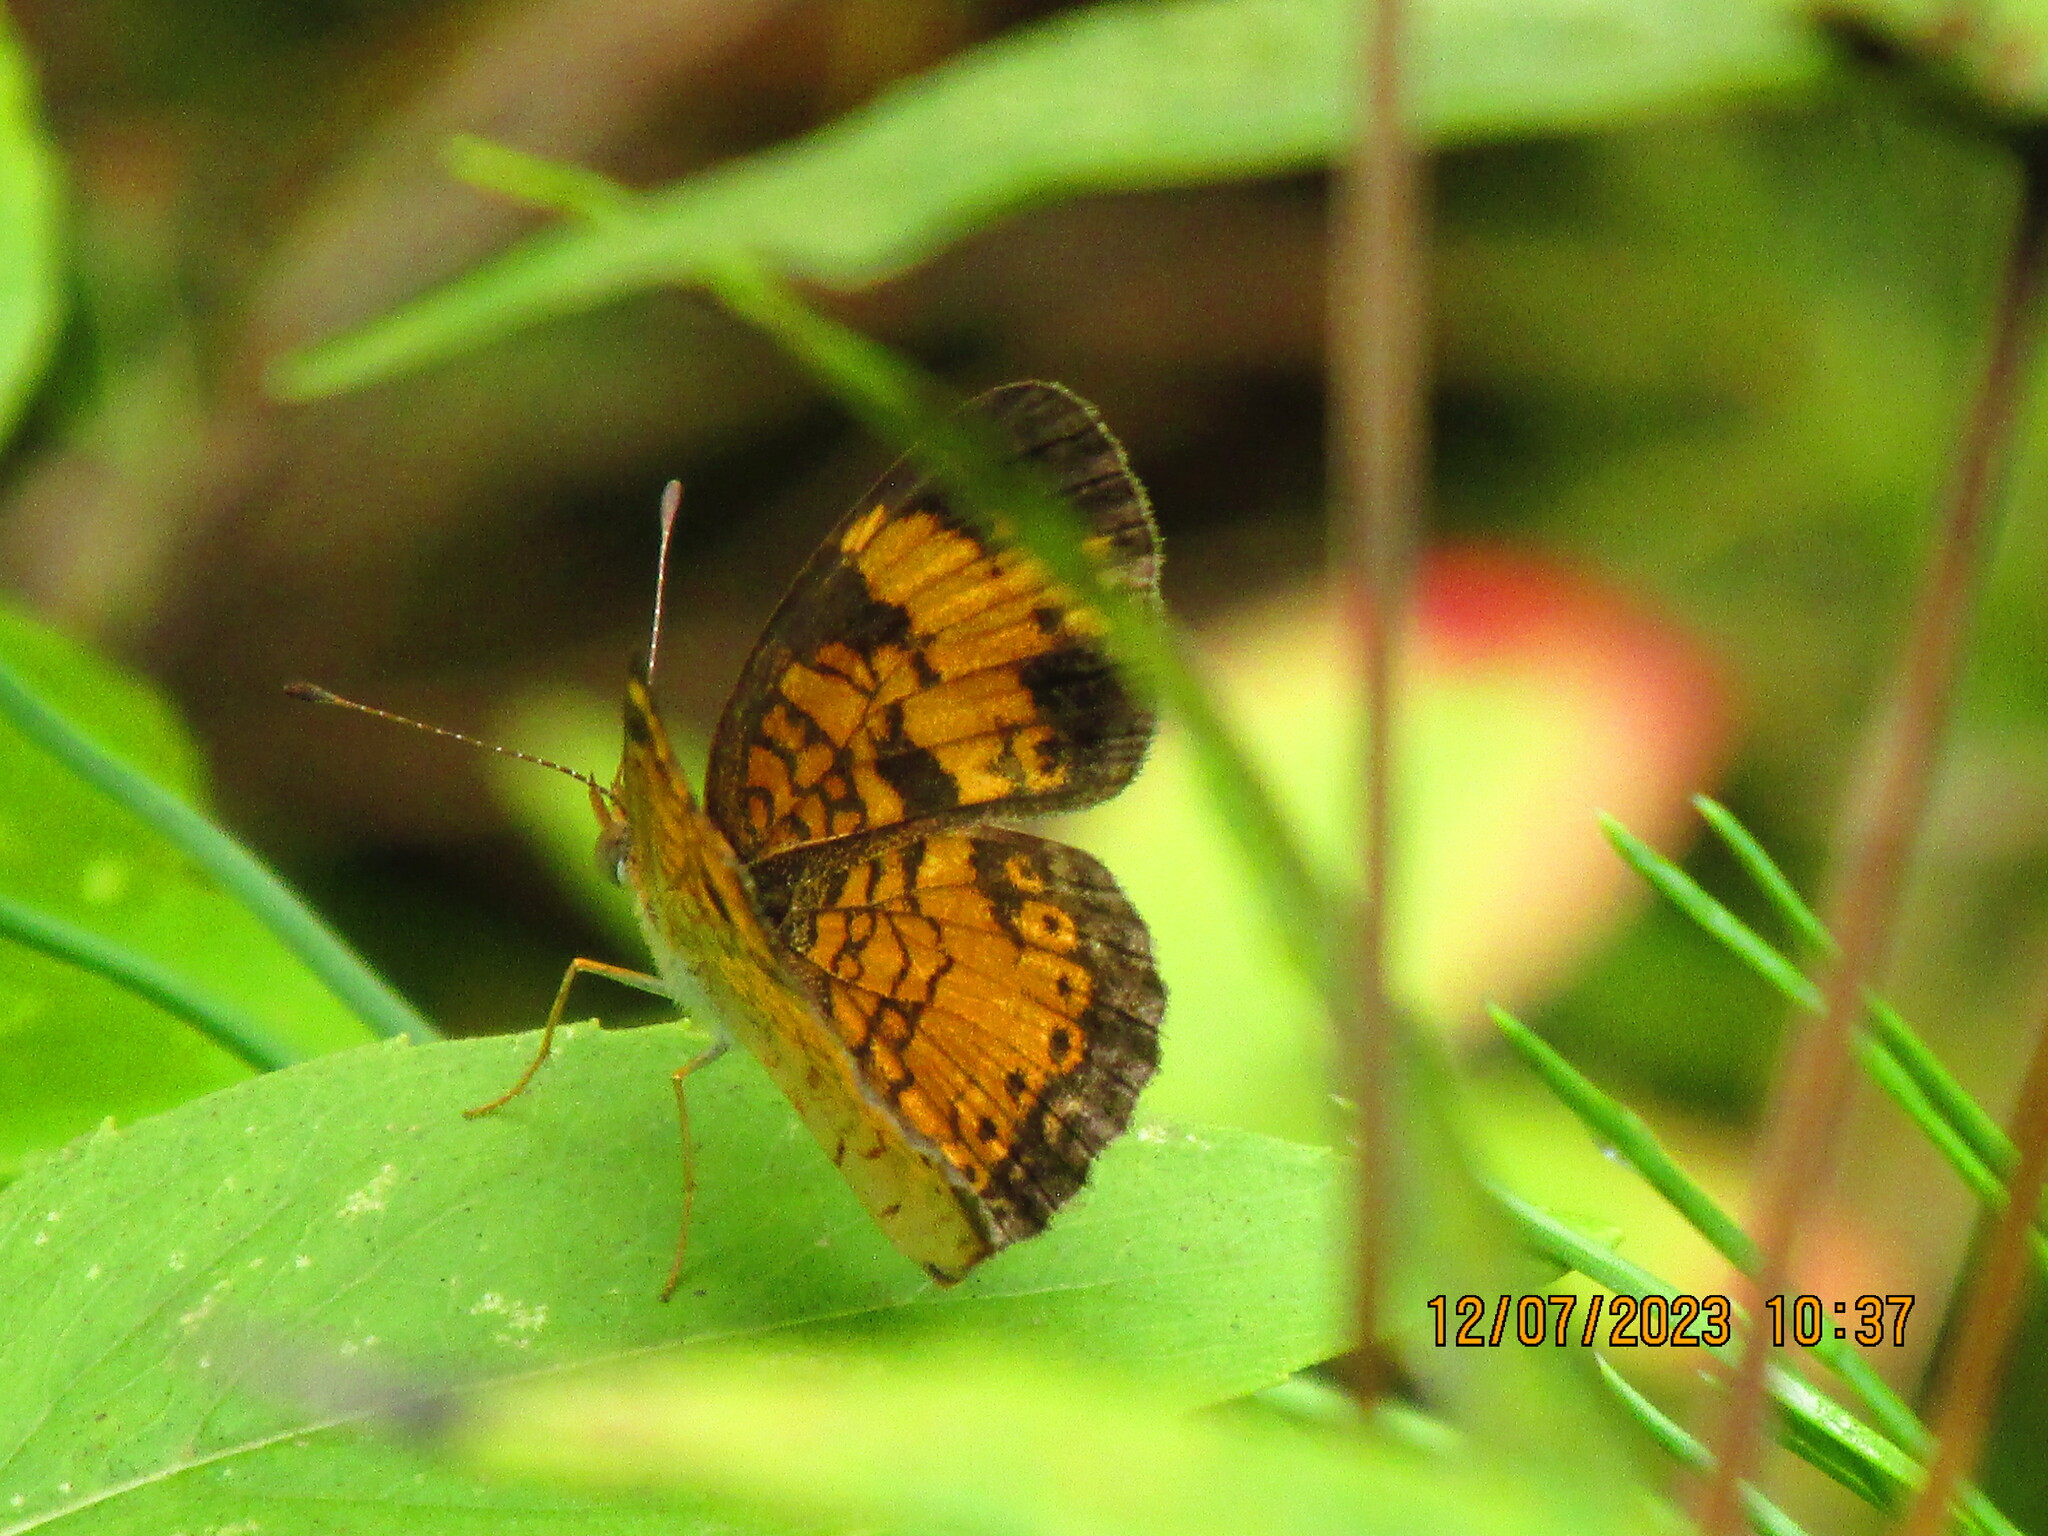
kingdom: Animalia
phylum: Arthropoda
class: Insecta
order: Lepidoptera
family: Nymphalidae
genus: Phyciodes
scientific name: Phyciodes tharos
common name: Pearl crescent
